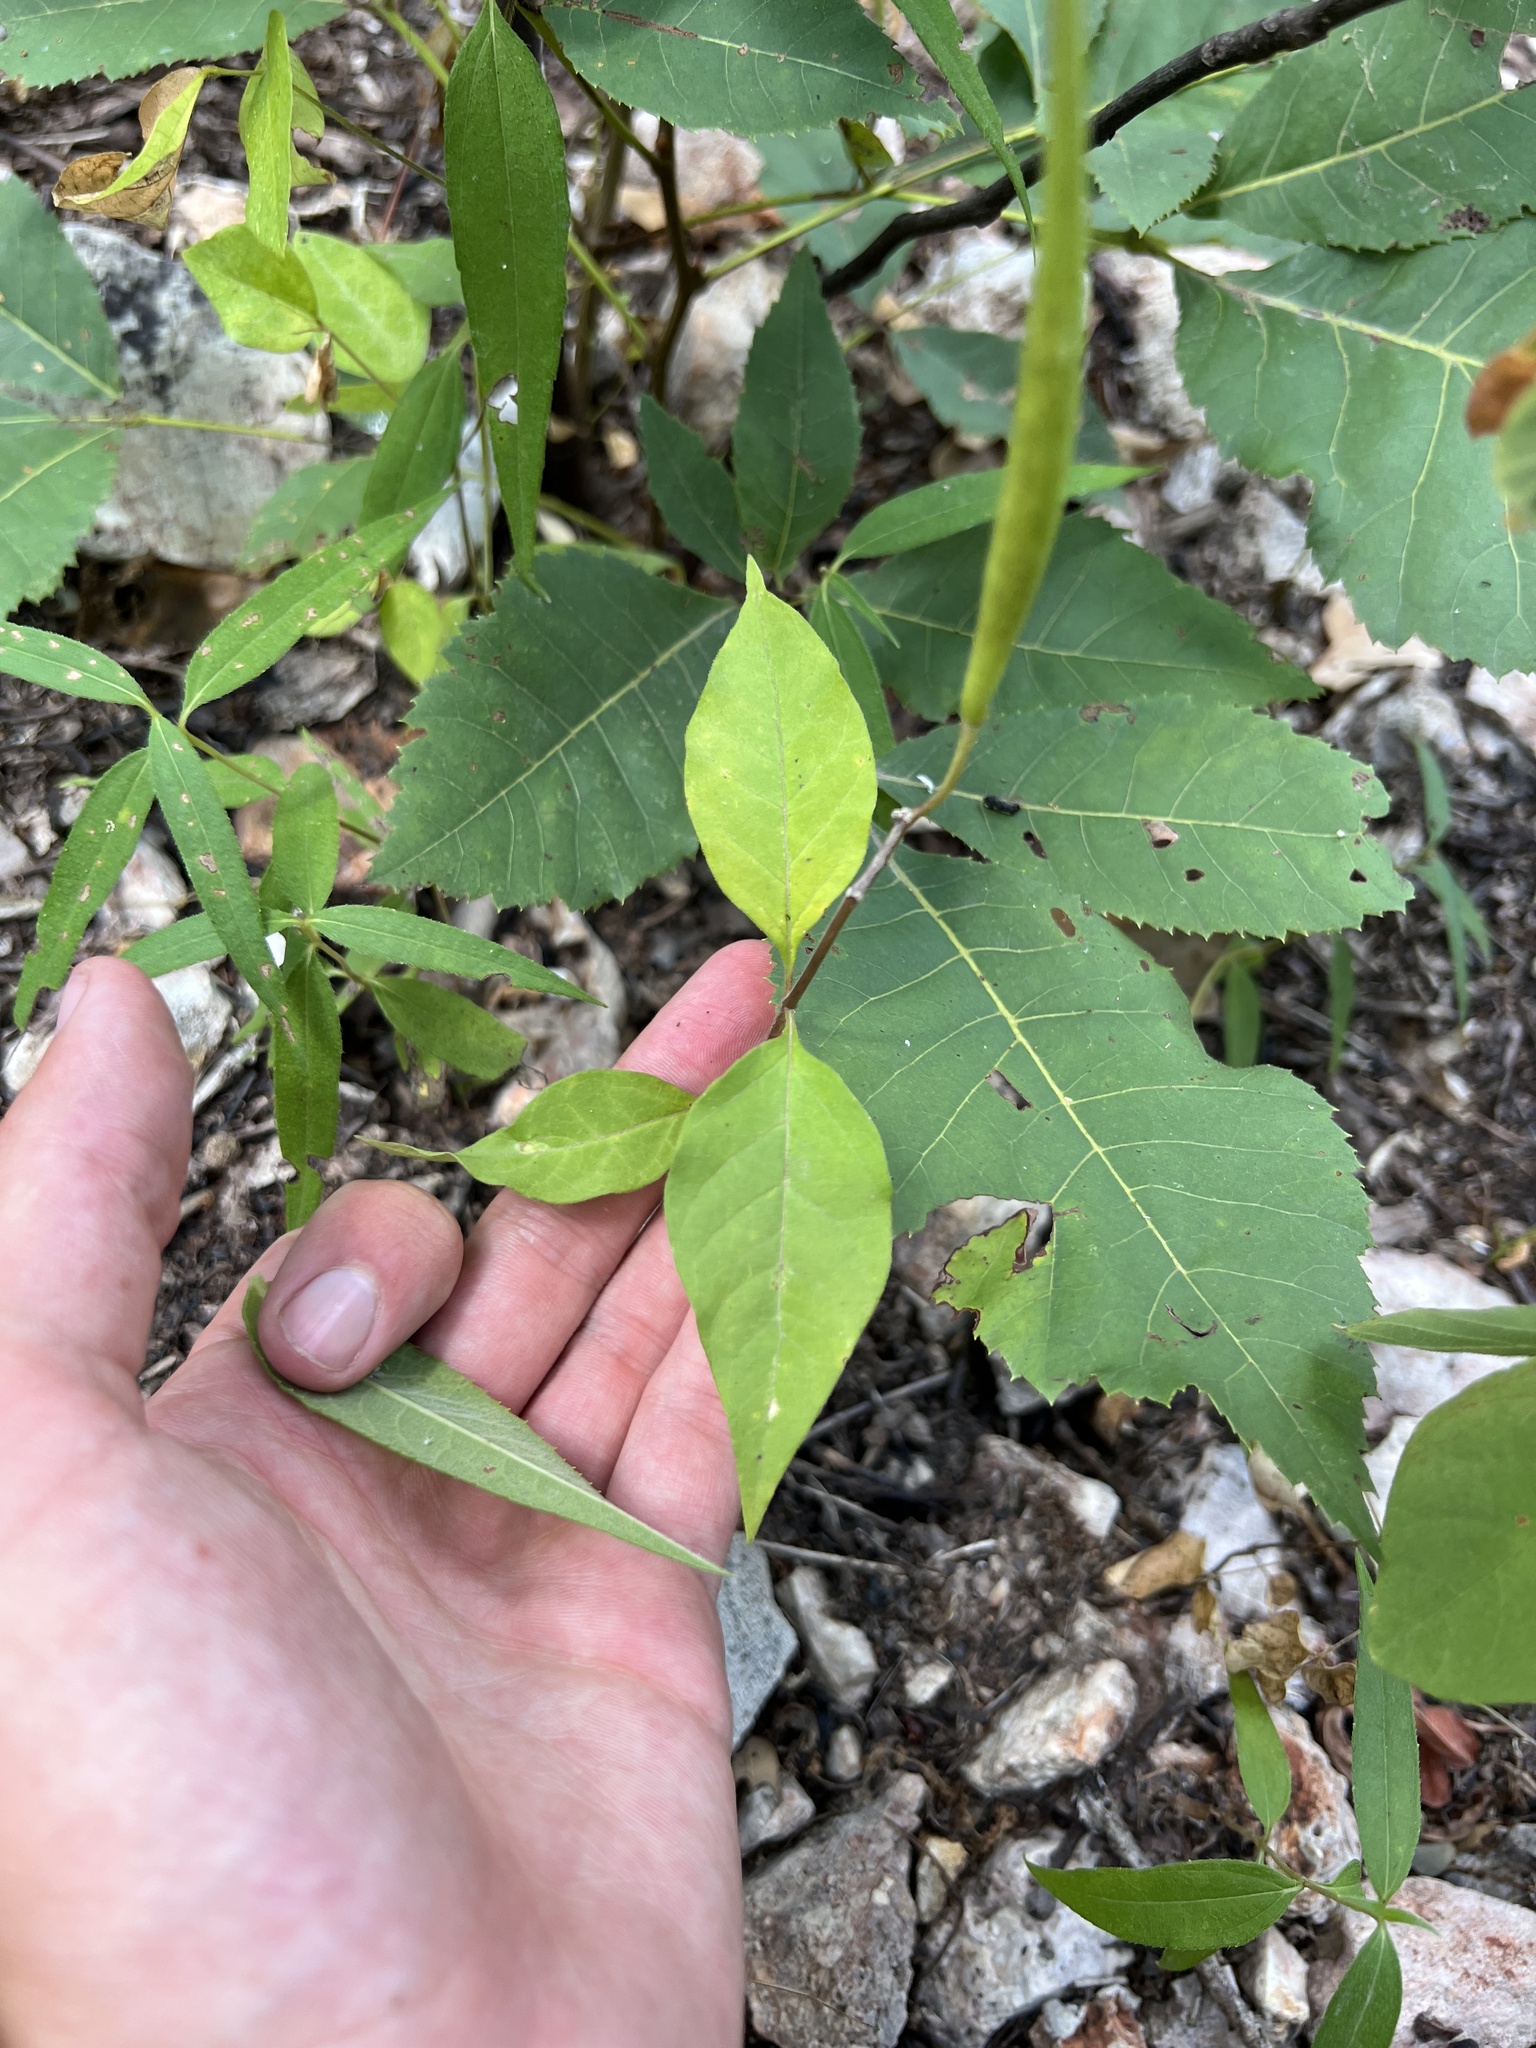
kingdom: Plantae
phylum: Tracheophyta
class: Magnoliopsida
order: Gentianales
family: Apocynaceae
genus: Asclepias
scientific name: Asclepias quadrifolia
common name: Whorled milkweed
